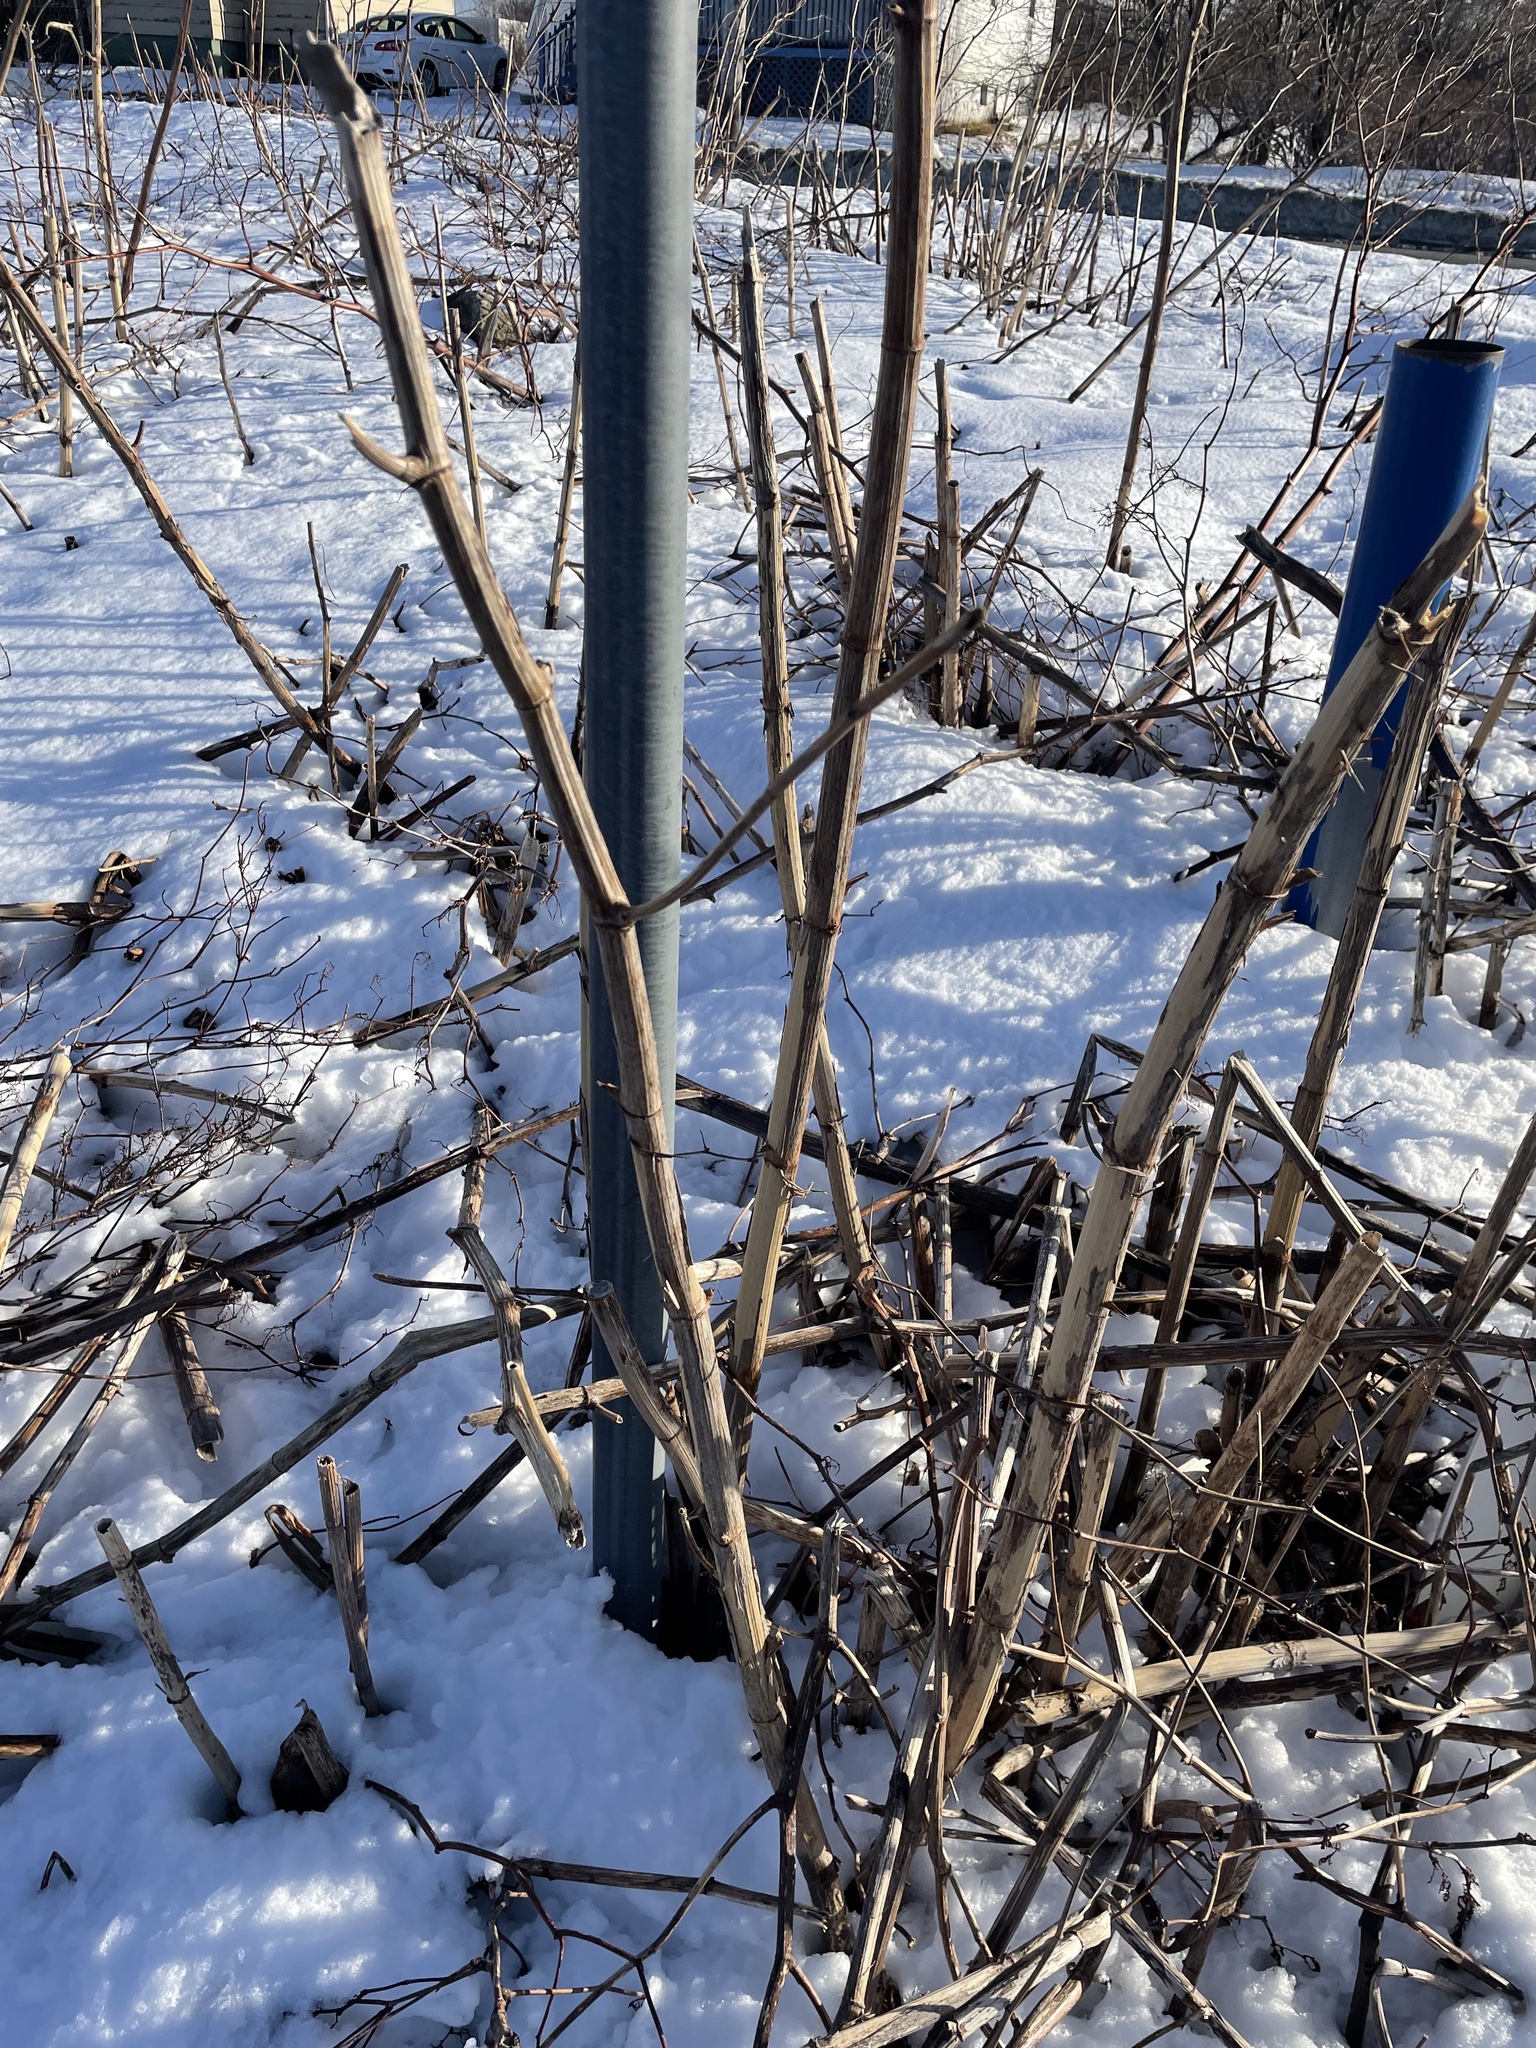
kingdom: Plantae
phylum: Tracheophyta
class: Magnoliopsida
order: Caryophyllales
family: Polygonaceae
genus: Reynoutria
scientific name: Reynoutria japonica
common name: Japanese knotweed
